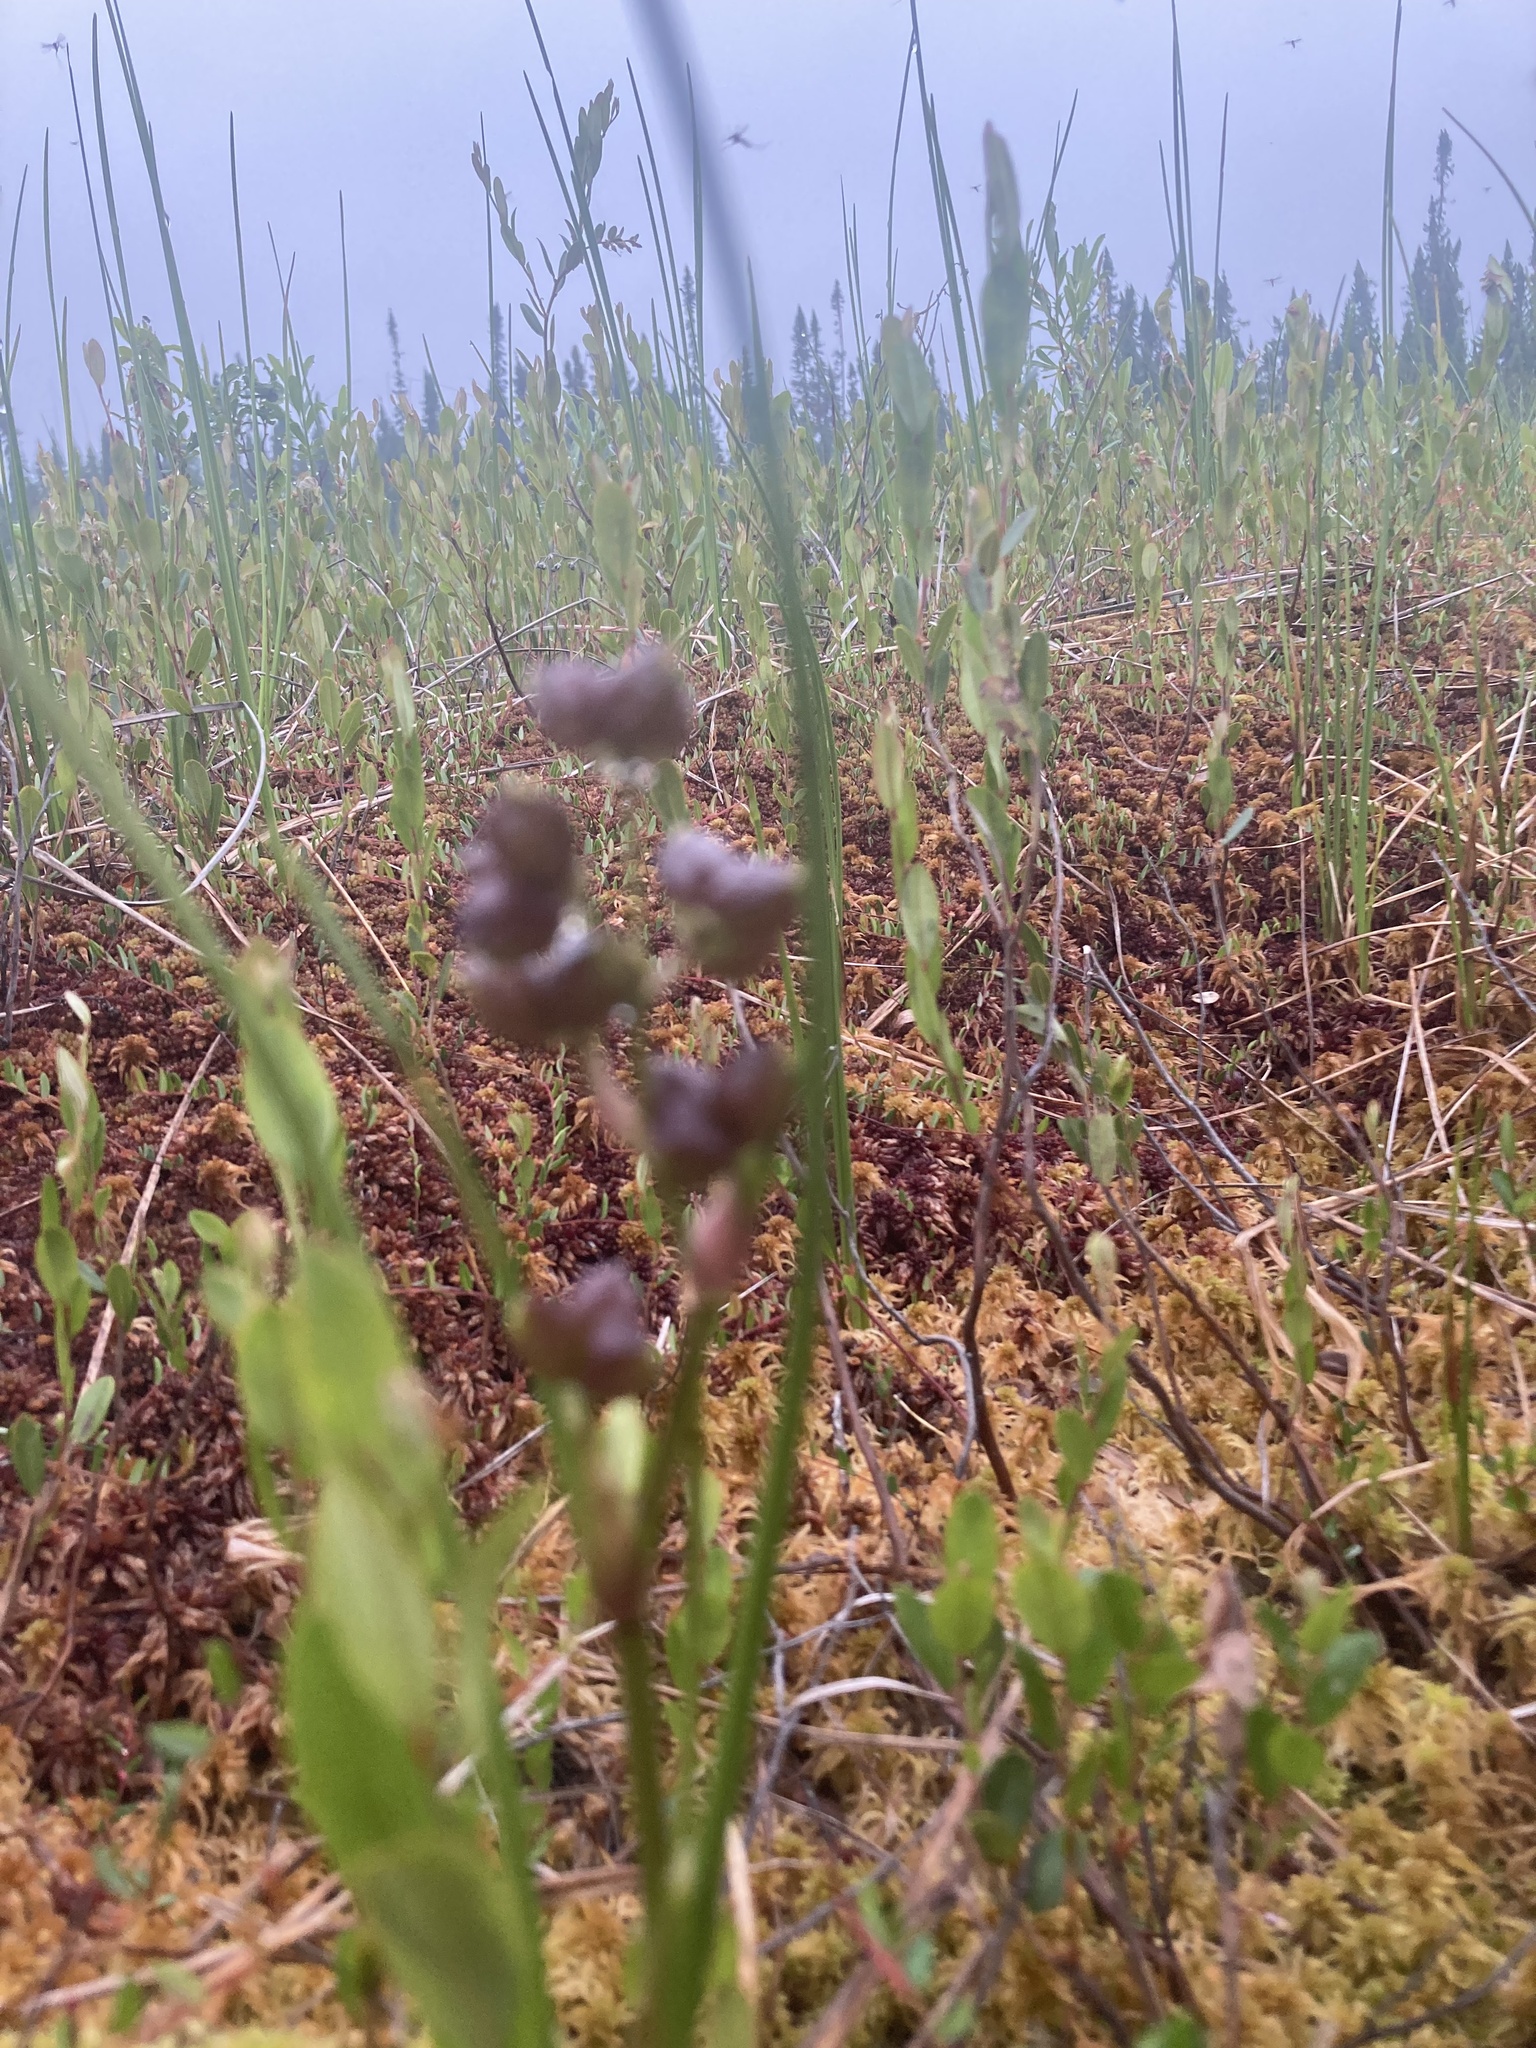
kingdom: Plantae
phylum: Tracheophyta
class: Liliopsida
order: Alismatales
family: Scheuchzeriaceae
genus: Scheuchzeria
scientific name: Scheuchzeria palustris
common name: Rannoch-rush
